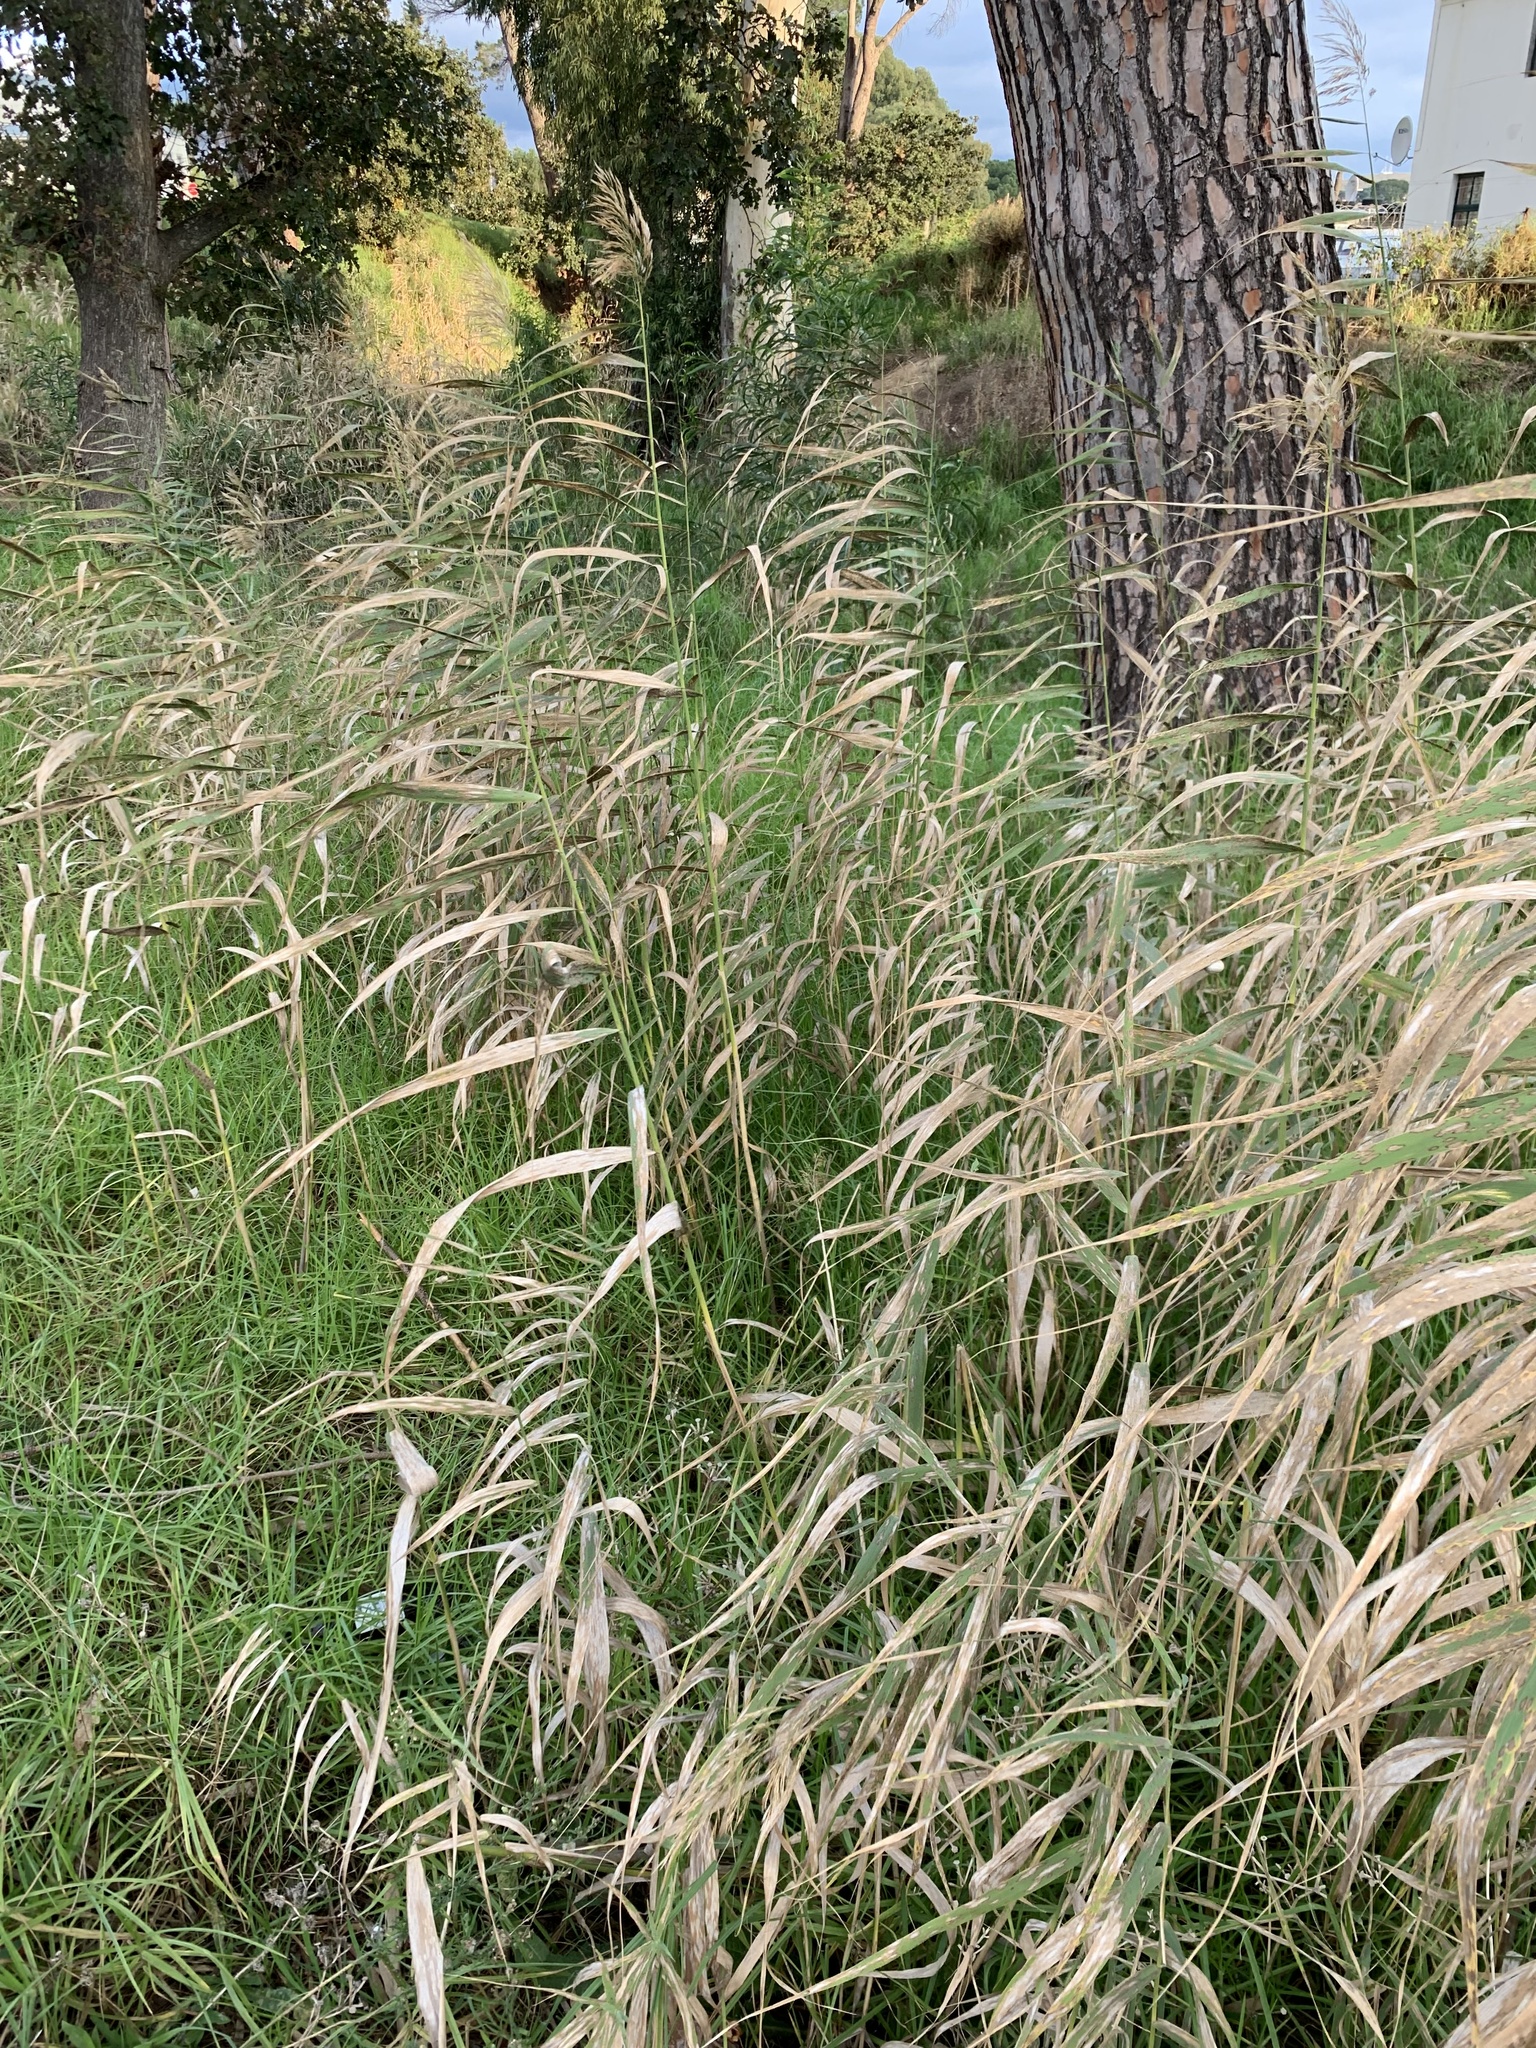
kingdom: Plantae
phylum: Tracheophyta
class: Liliopsida
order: Poales
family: Poaceae
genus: Phragmites
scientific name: Phragmites australis
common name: Common reed
